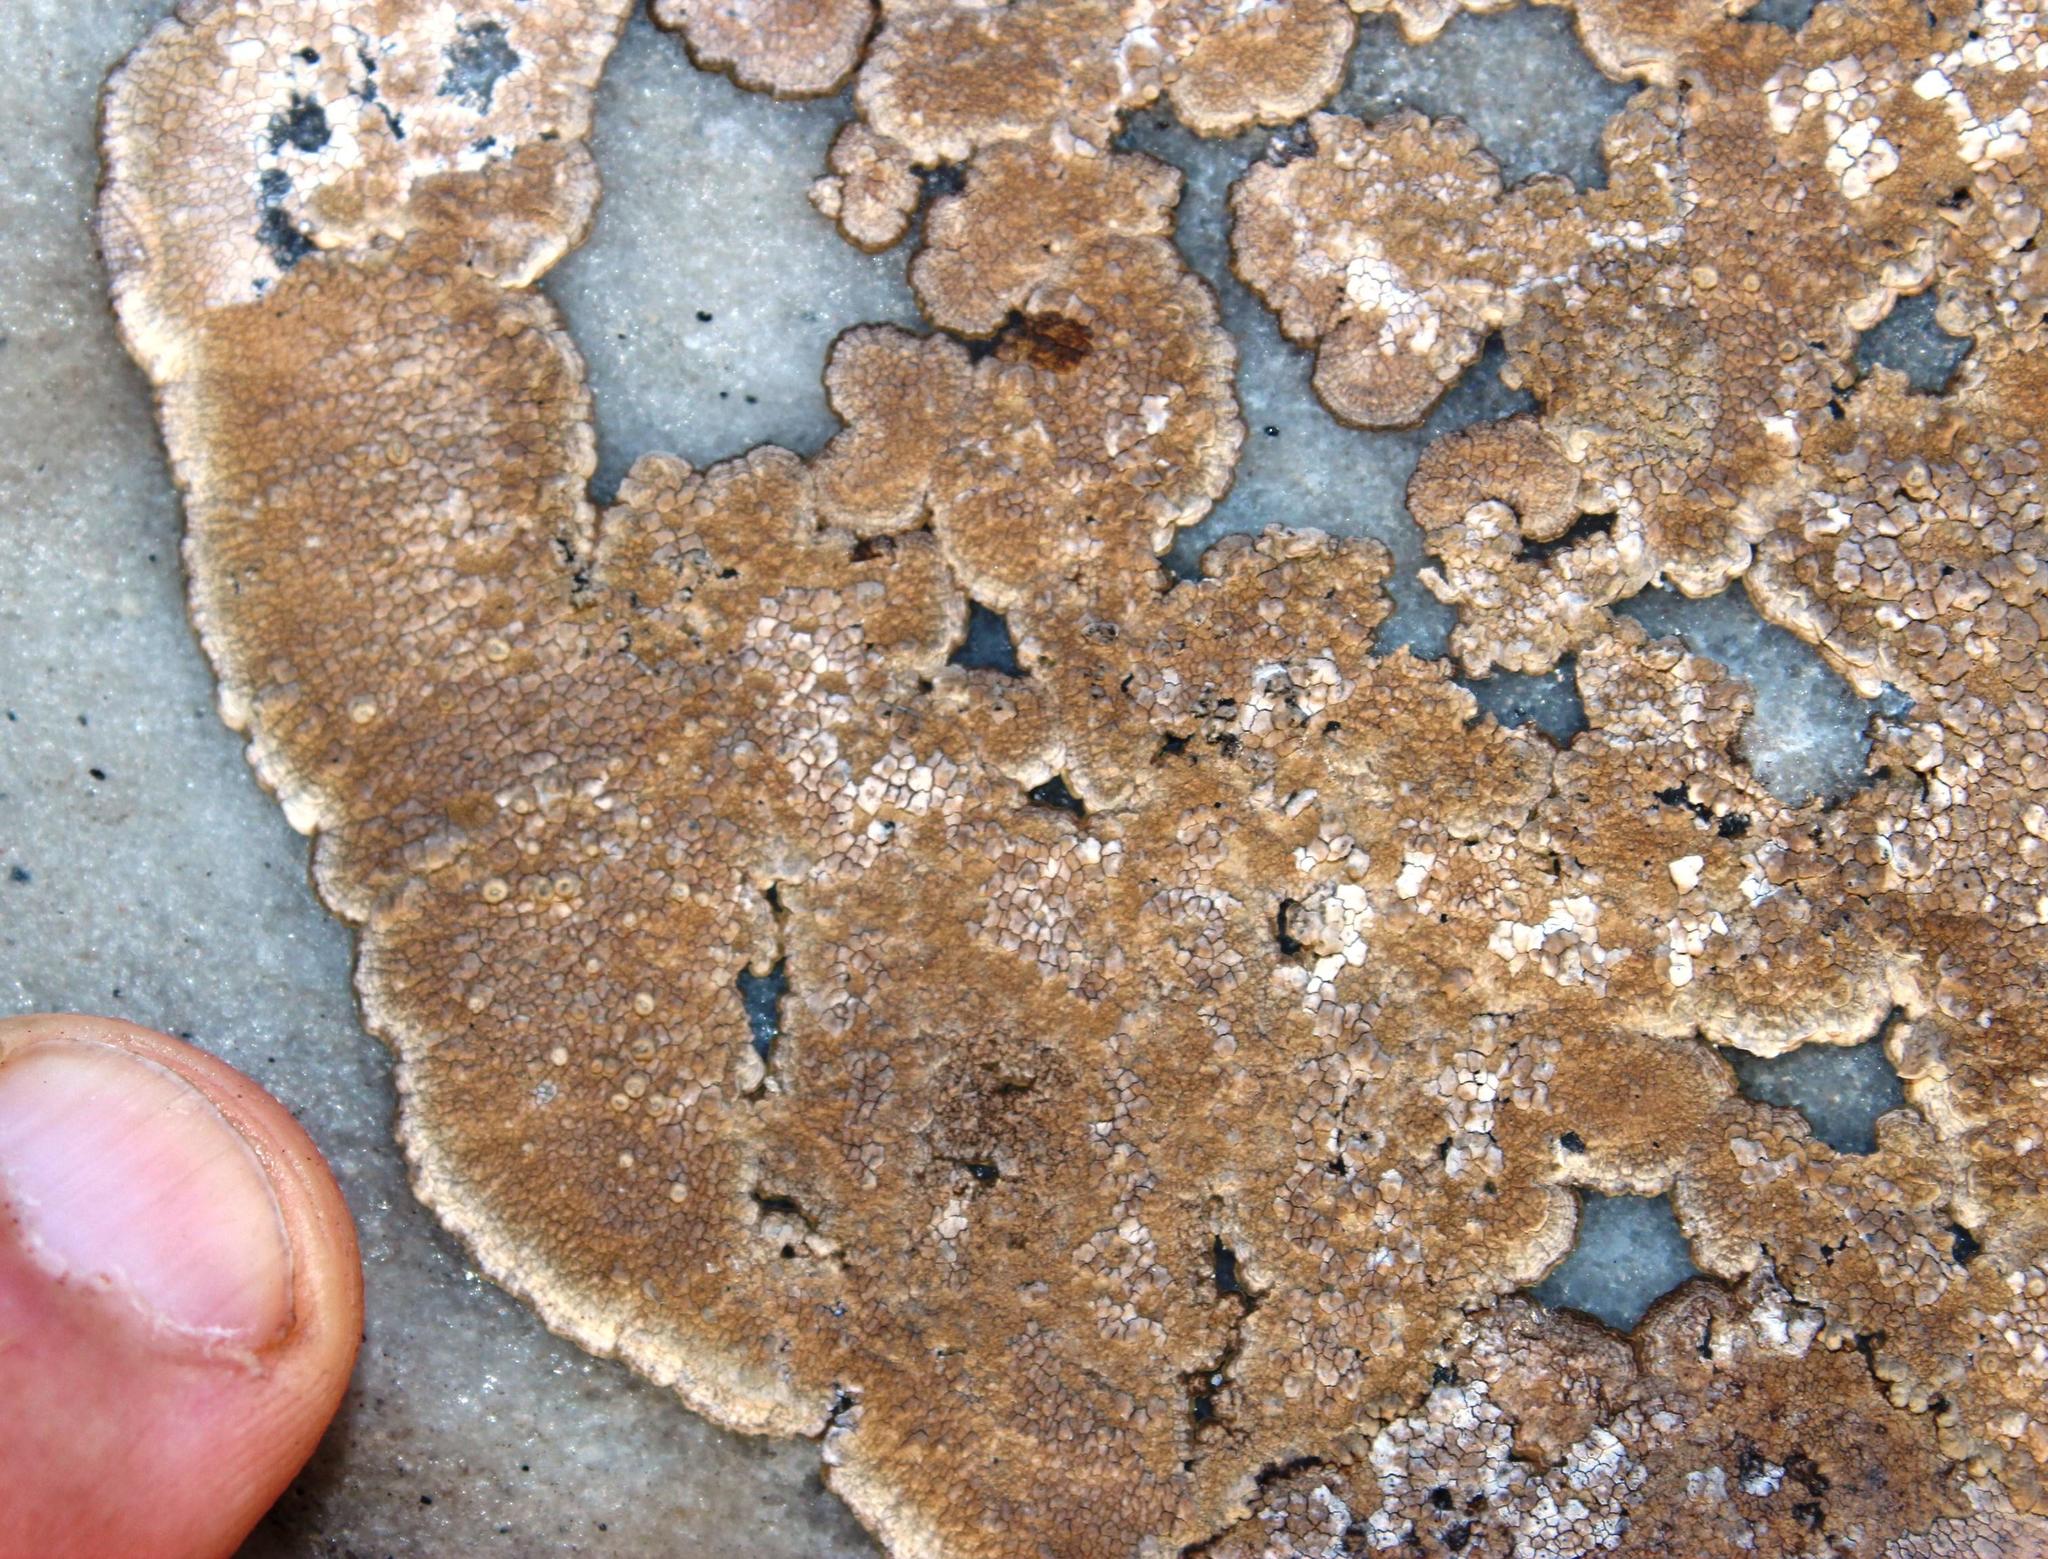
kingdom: Fungi
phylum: Ascomycota
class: Arthoniomycetes
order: Arthoniales
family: Roccellaceae
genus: Roccellina
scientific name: Roccellina capensis
